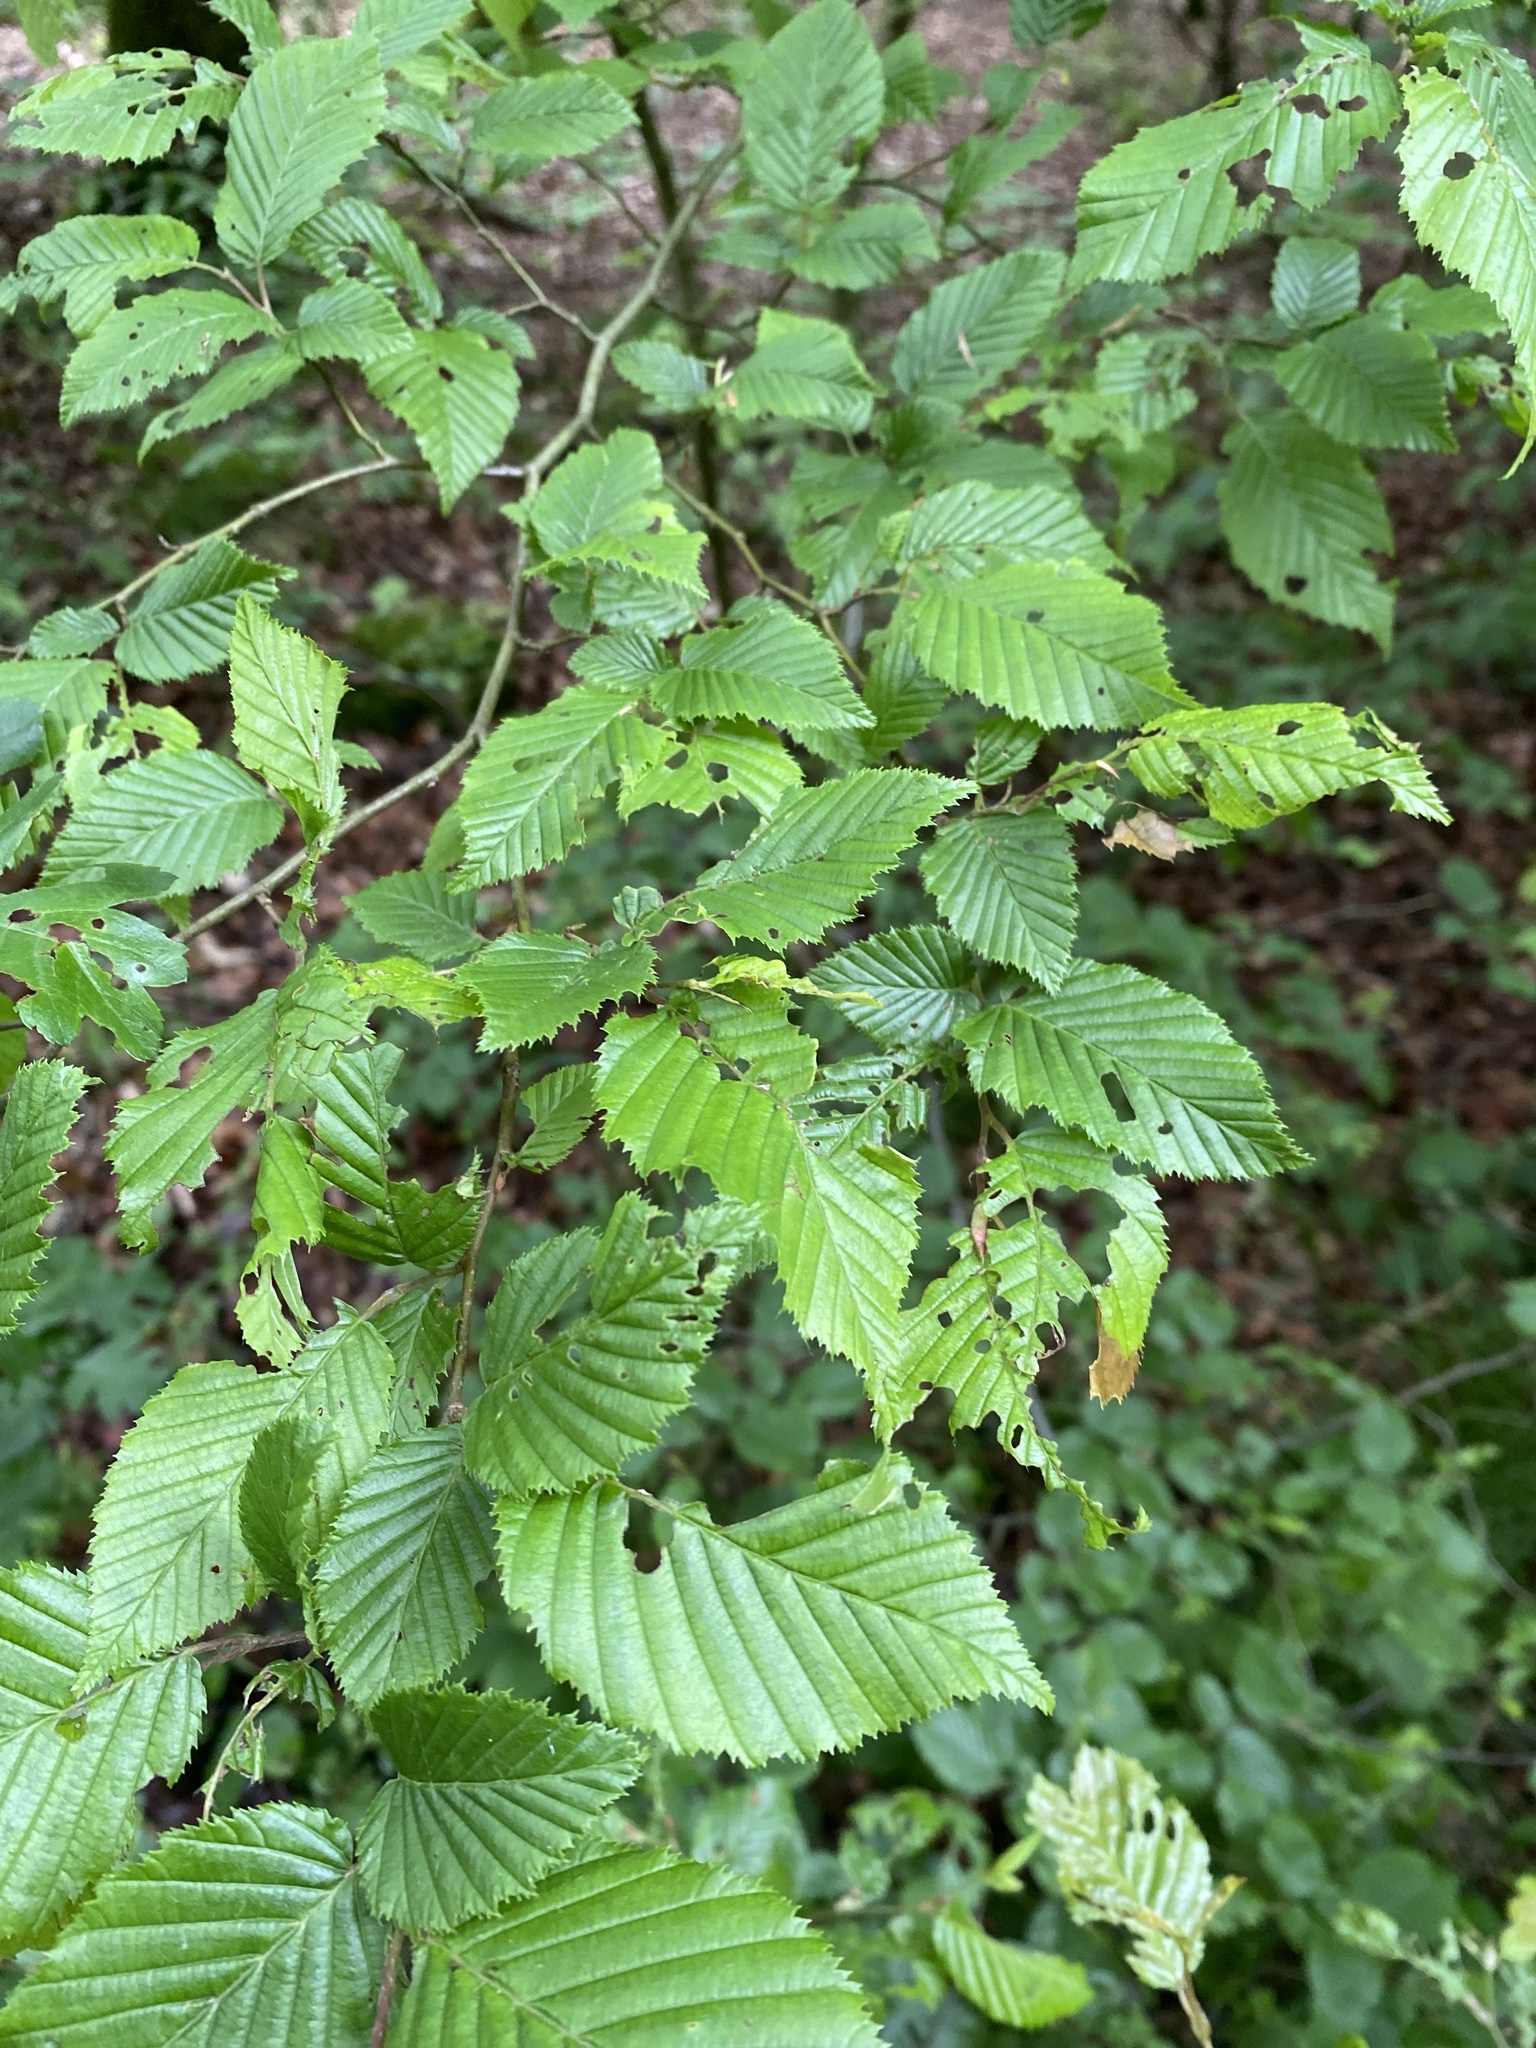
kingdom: Plantae
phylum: Tracheophyta
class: Magnoliopsida
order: Fagales
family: Betulaceae
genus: Carpinus
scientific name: Carpinus betulus
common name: Hornbeam
